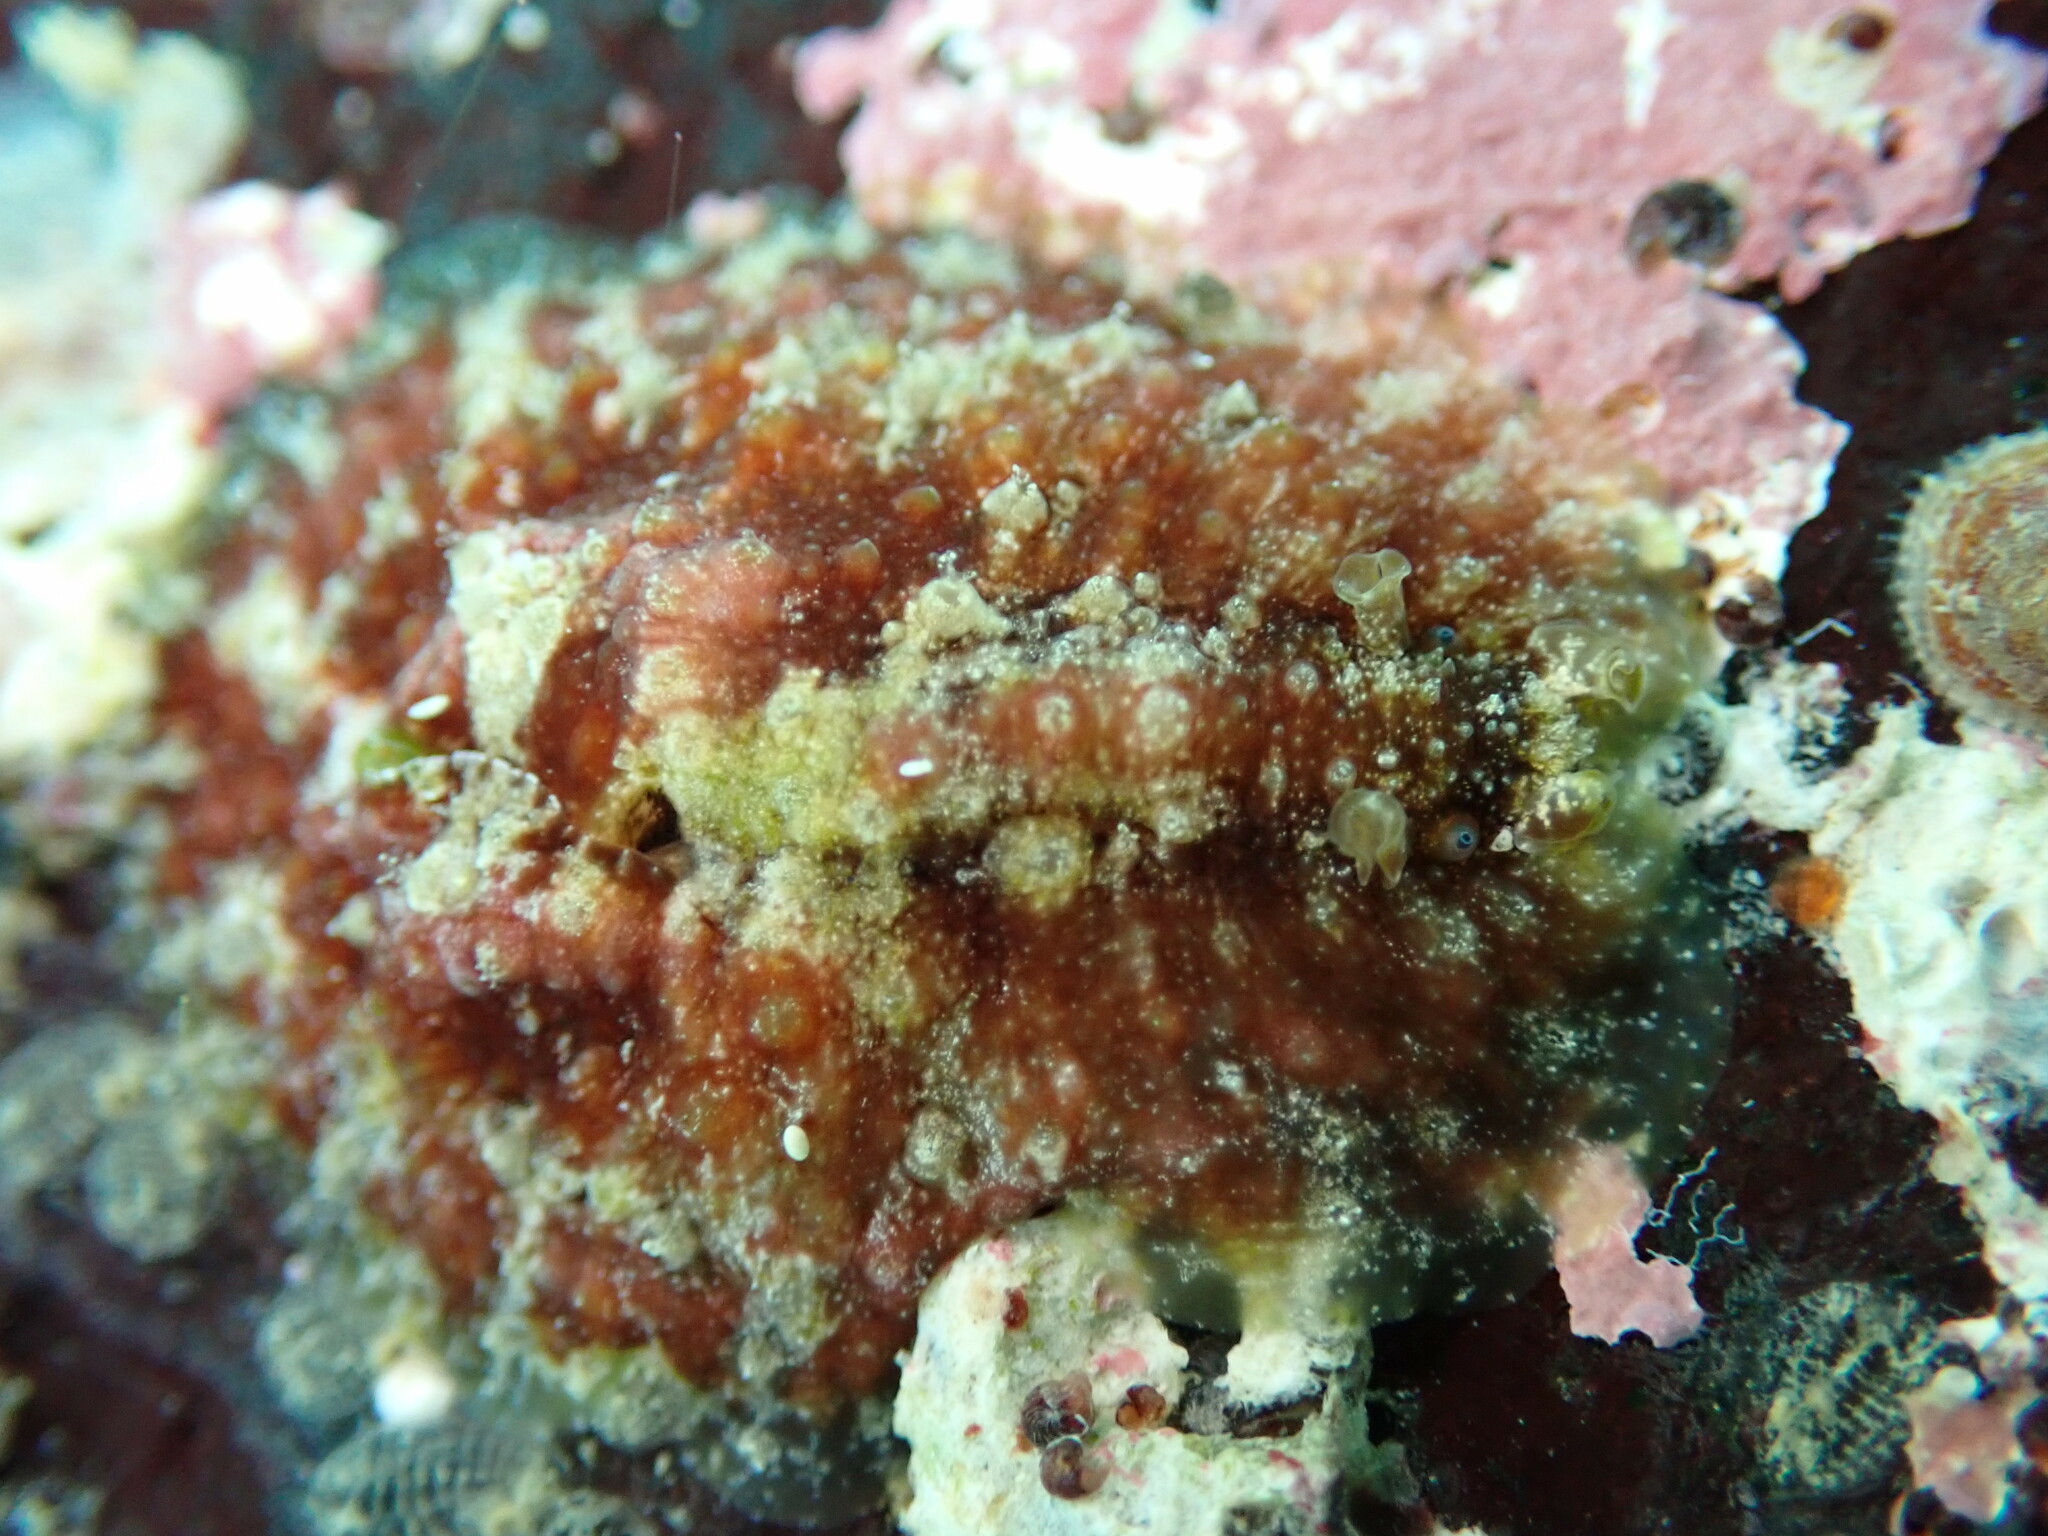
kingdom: Animalia
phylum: Mollusca
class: Gastropoda
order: Aplysiida
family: Aplysiidae
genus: Dolabrifera
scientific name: Dolabrifera dolabrifera
